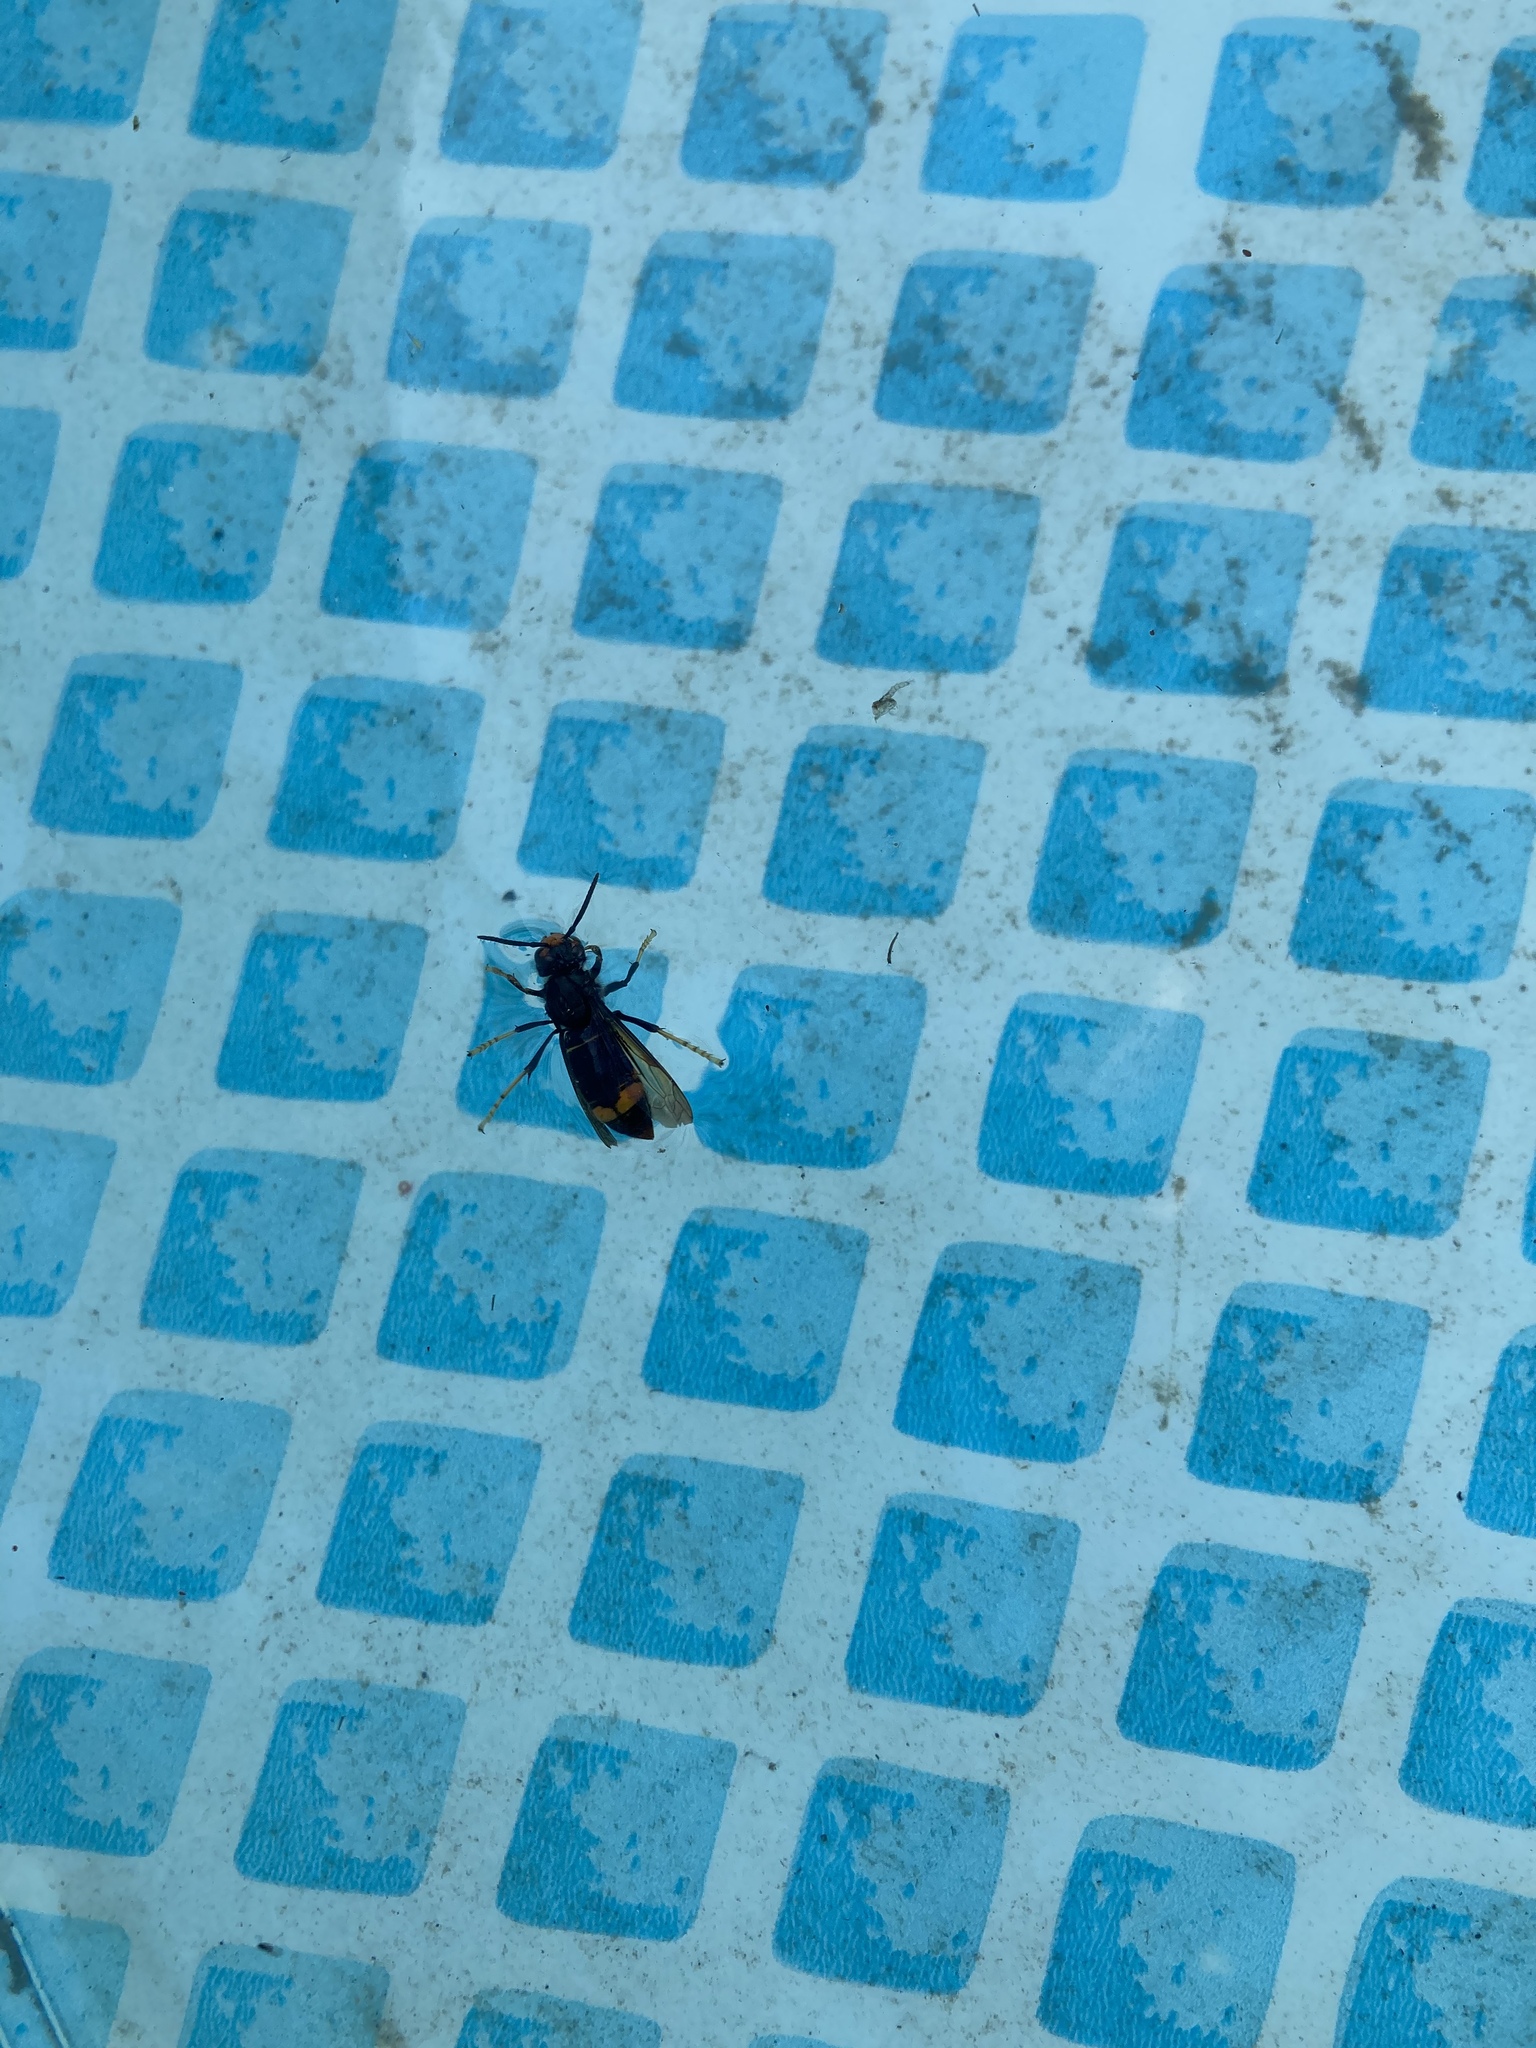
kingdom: Animalia
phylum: Arthropoda
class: Insecta
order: Hymenoptera
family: Vespidae
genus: Vespa
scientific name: Vespa velutina
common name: Asian hornet
